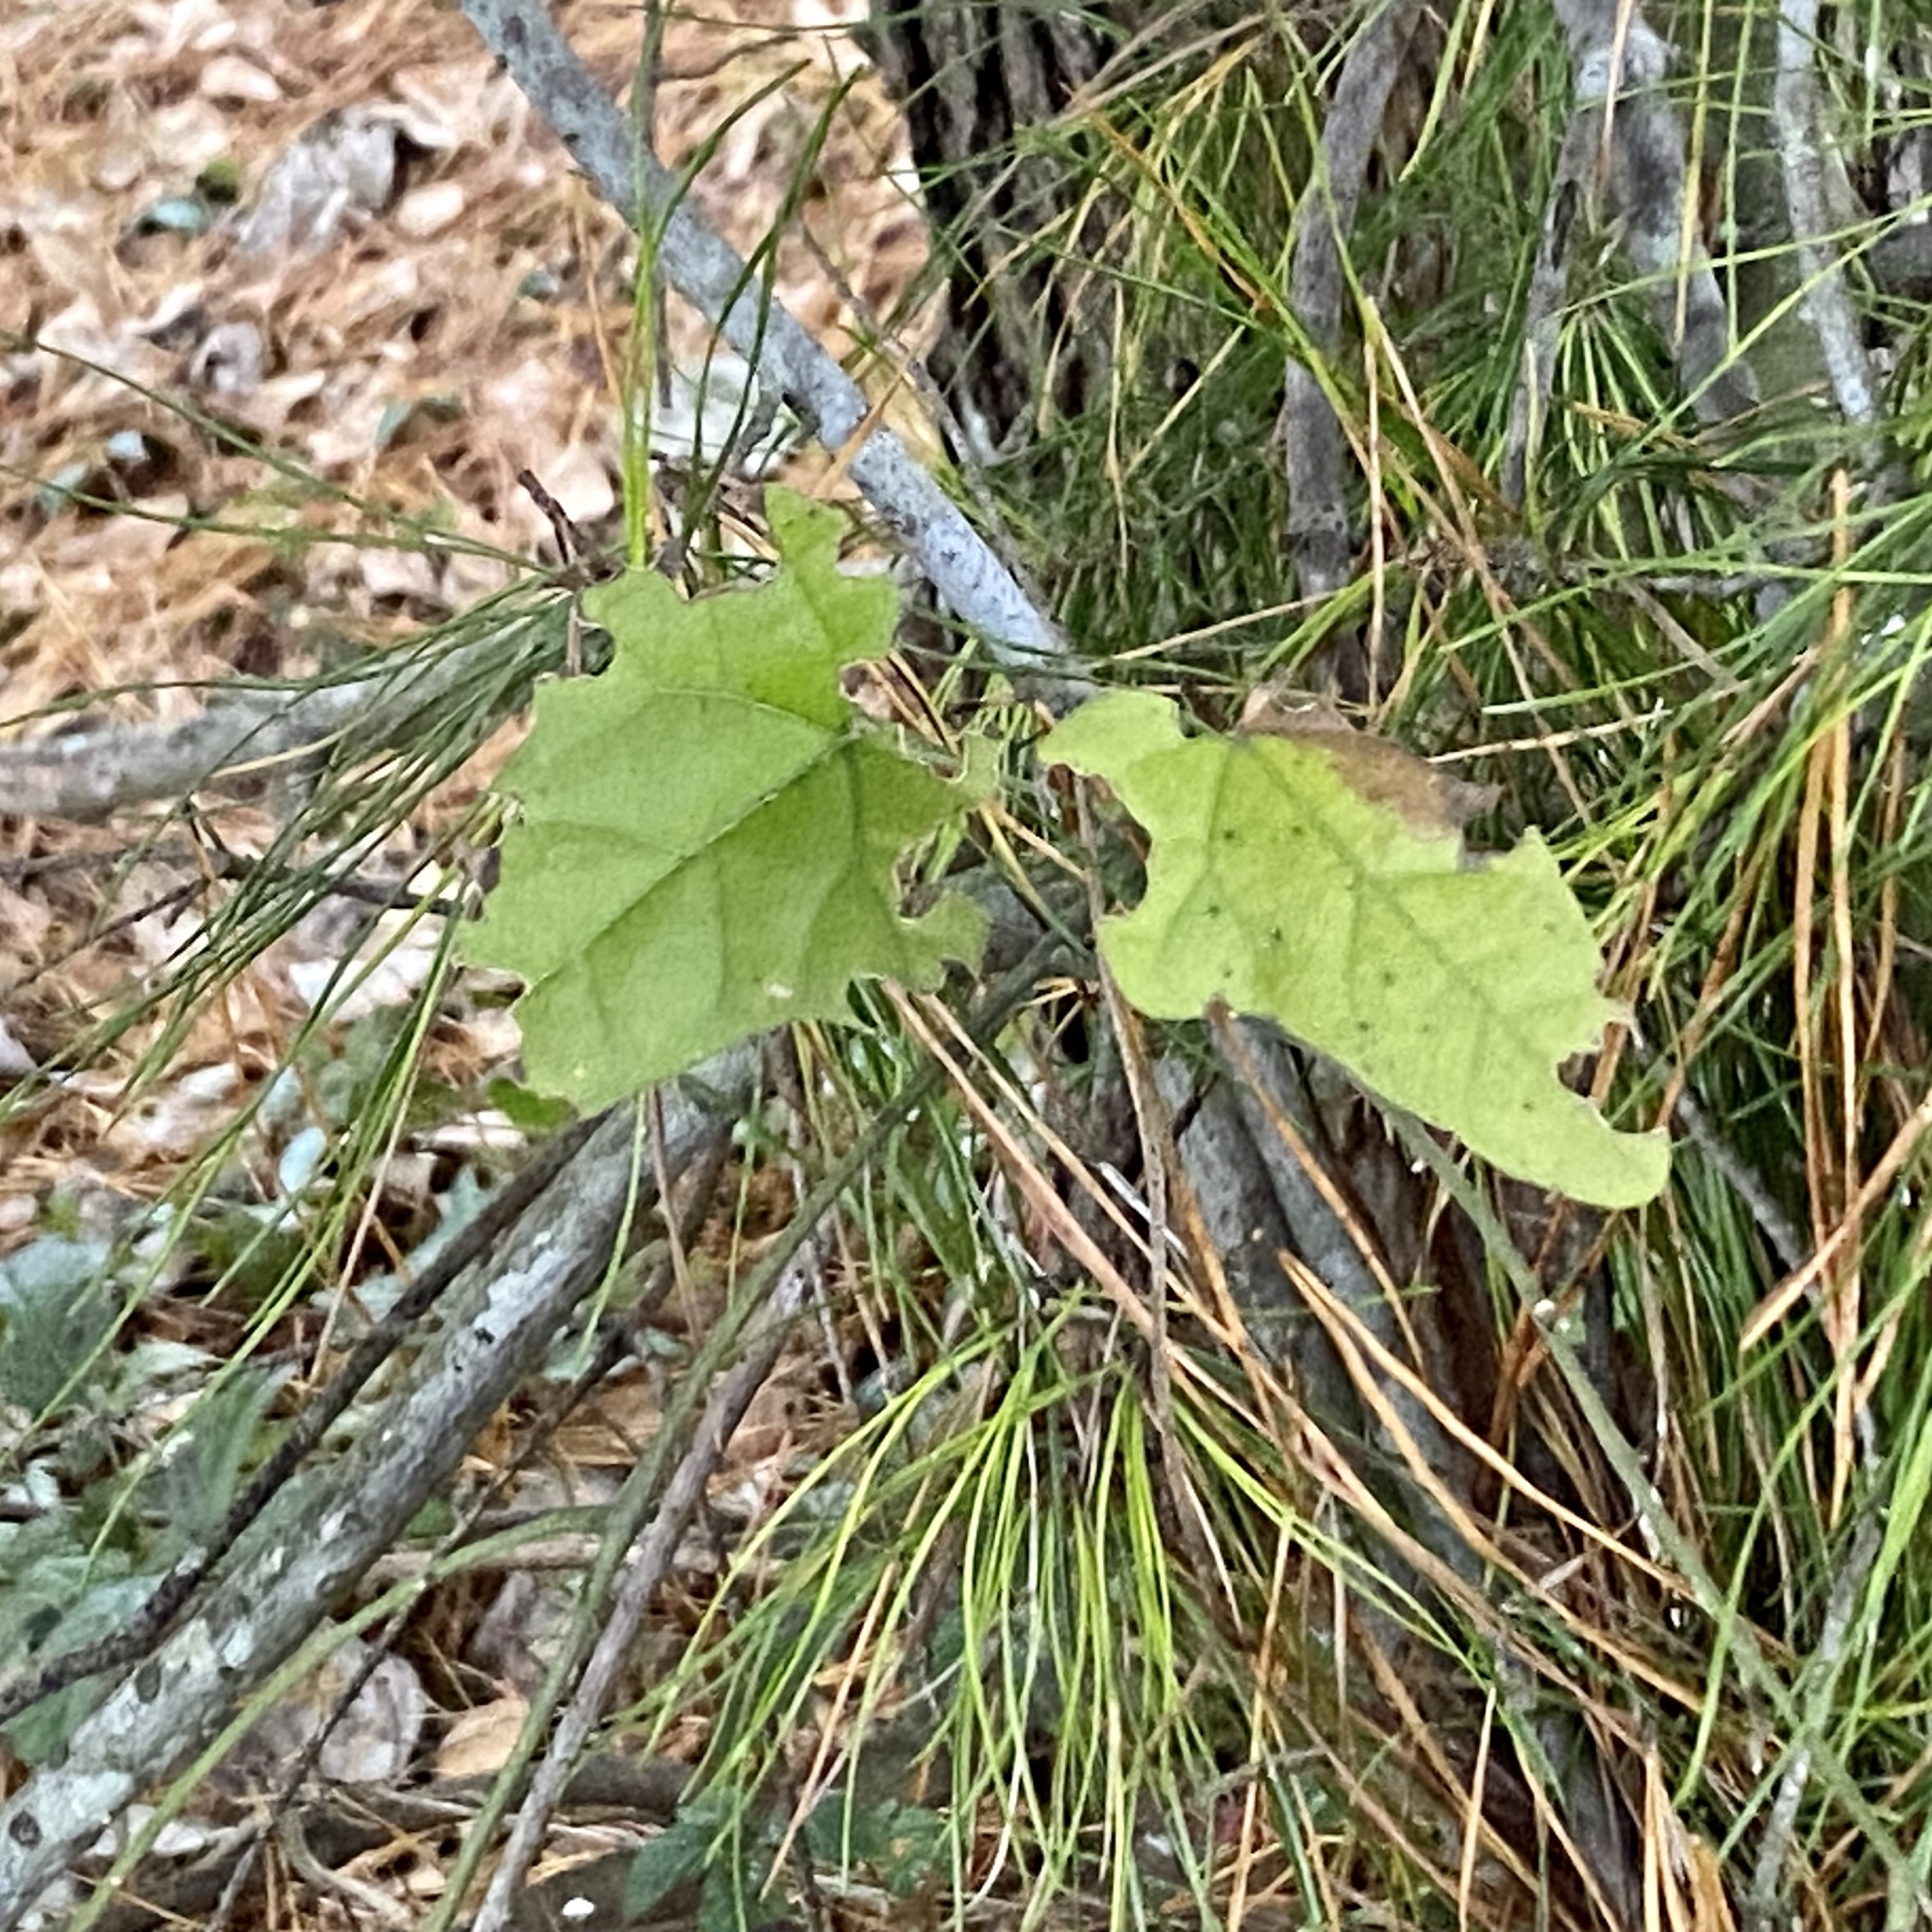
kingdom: Plantae
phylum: Tracheophyta
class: Magnoliopsida
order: Ranunculales
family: Menispermaceae
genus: Cocculus
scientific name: Cocculus carolinus
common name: Carolina moonseed
